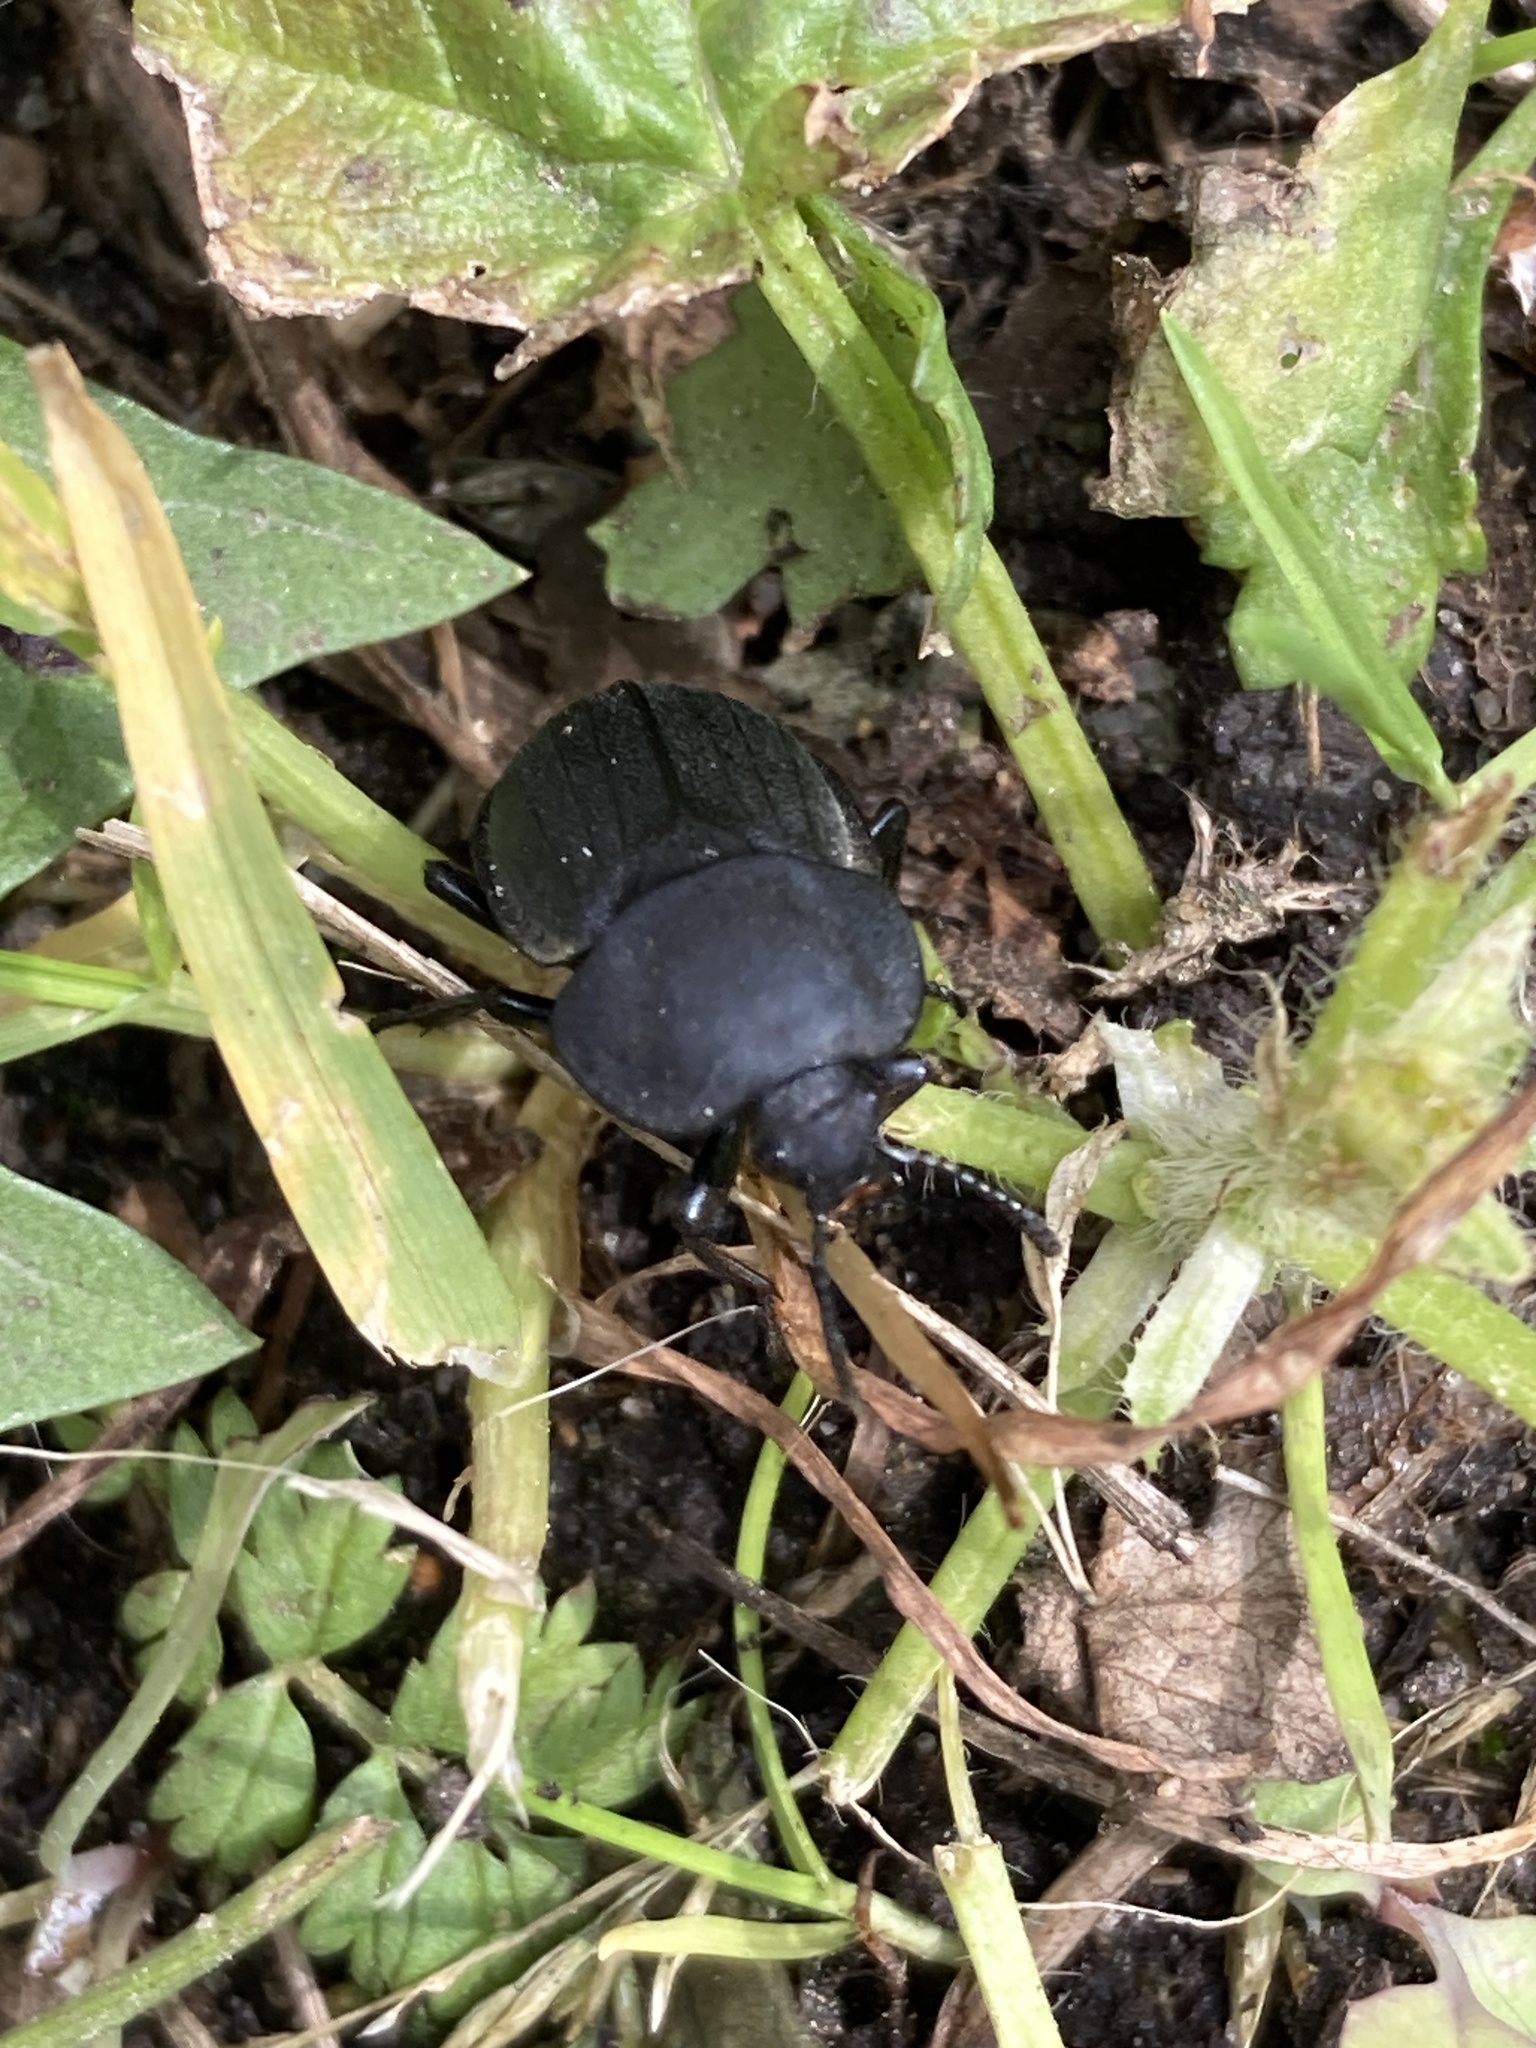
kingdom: Animalia
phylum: Arthropoda
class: Insecta
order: Coleoptera
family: Staphylinidae
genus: Silpha
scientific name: Silpha obscura
